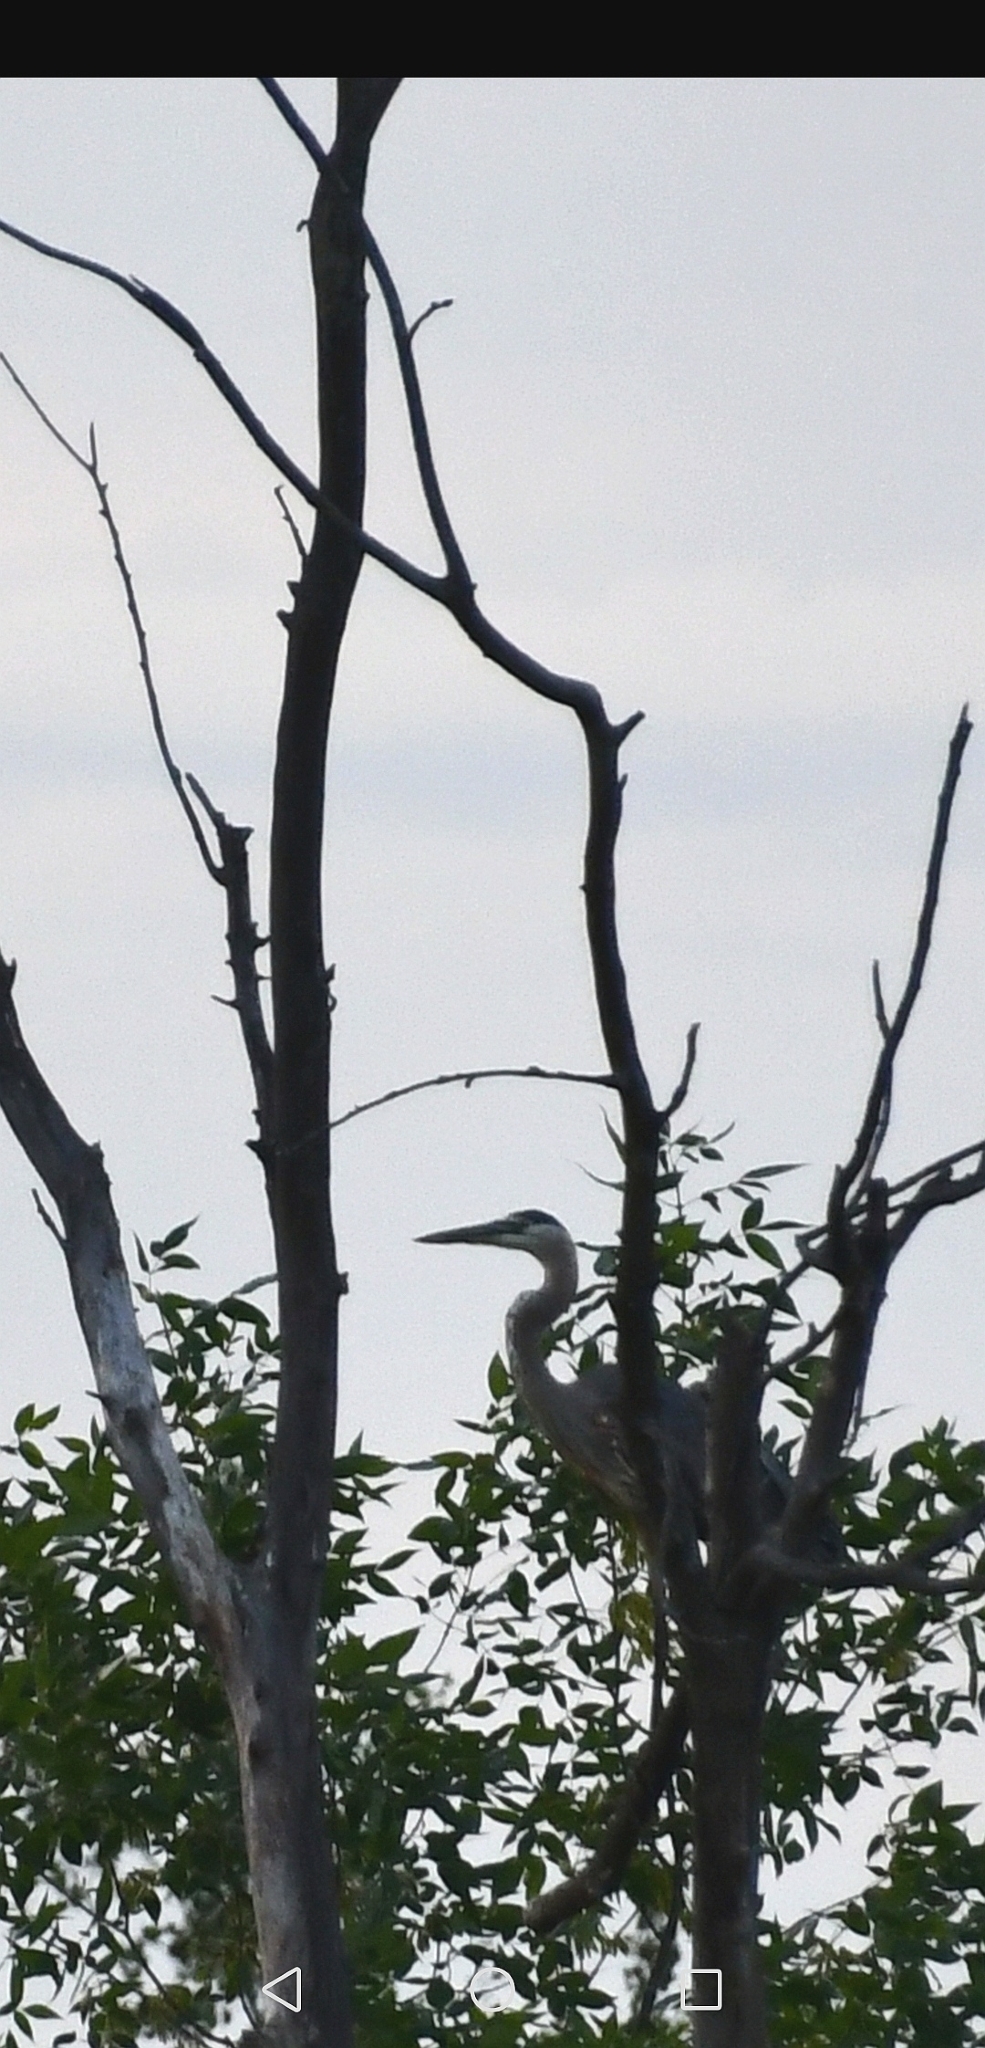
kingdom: Animalia
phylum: Chordata
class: Aves
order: Pelecaniformes
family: Ardeidae
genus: Ardea
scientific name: Ardea herodias
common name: Great blue heron
